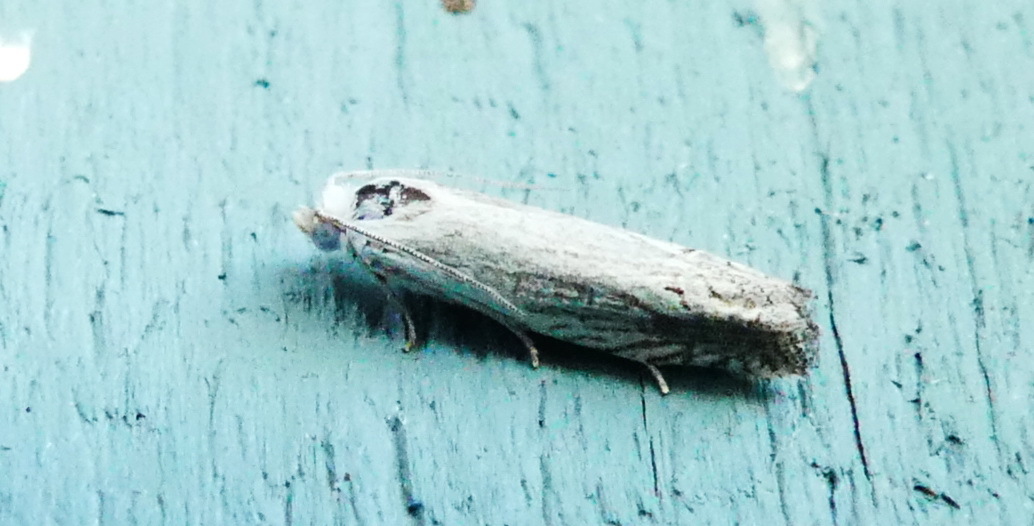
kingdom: Animalia
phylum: Arthropoda
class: Insecta
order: Lepidoptera
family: Tortricidae
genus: Pelochrista
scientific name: Pelochrista argentialbana
